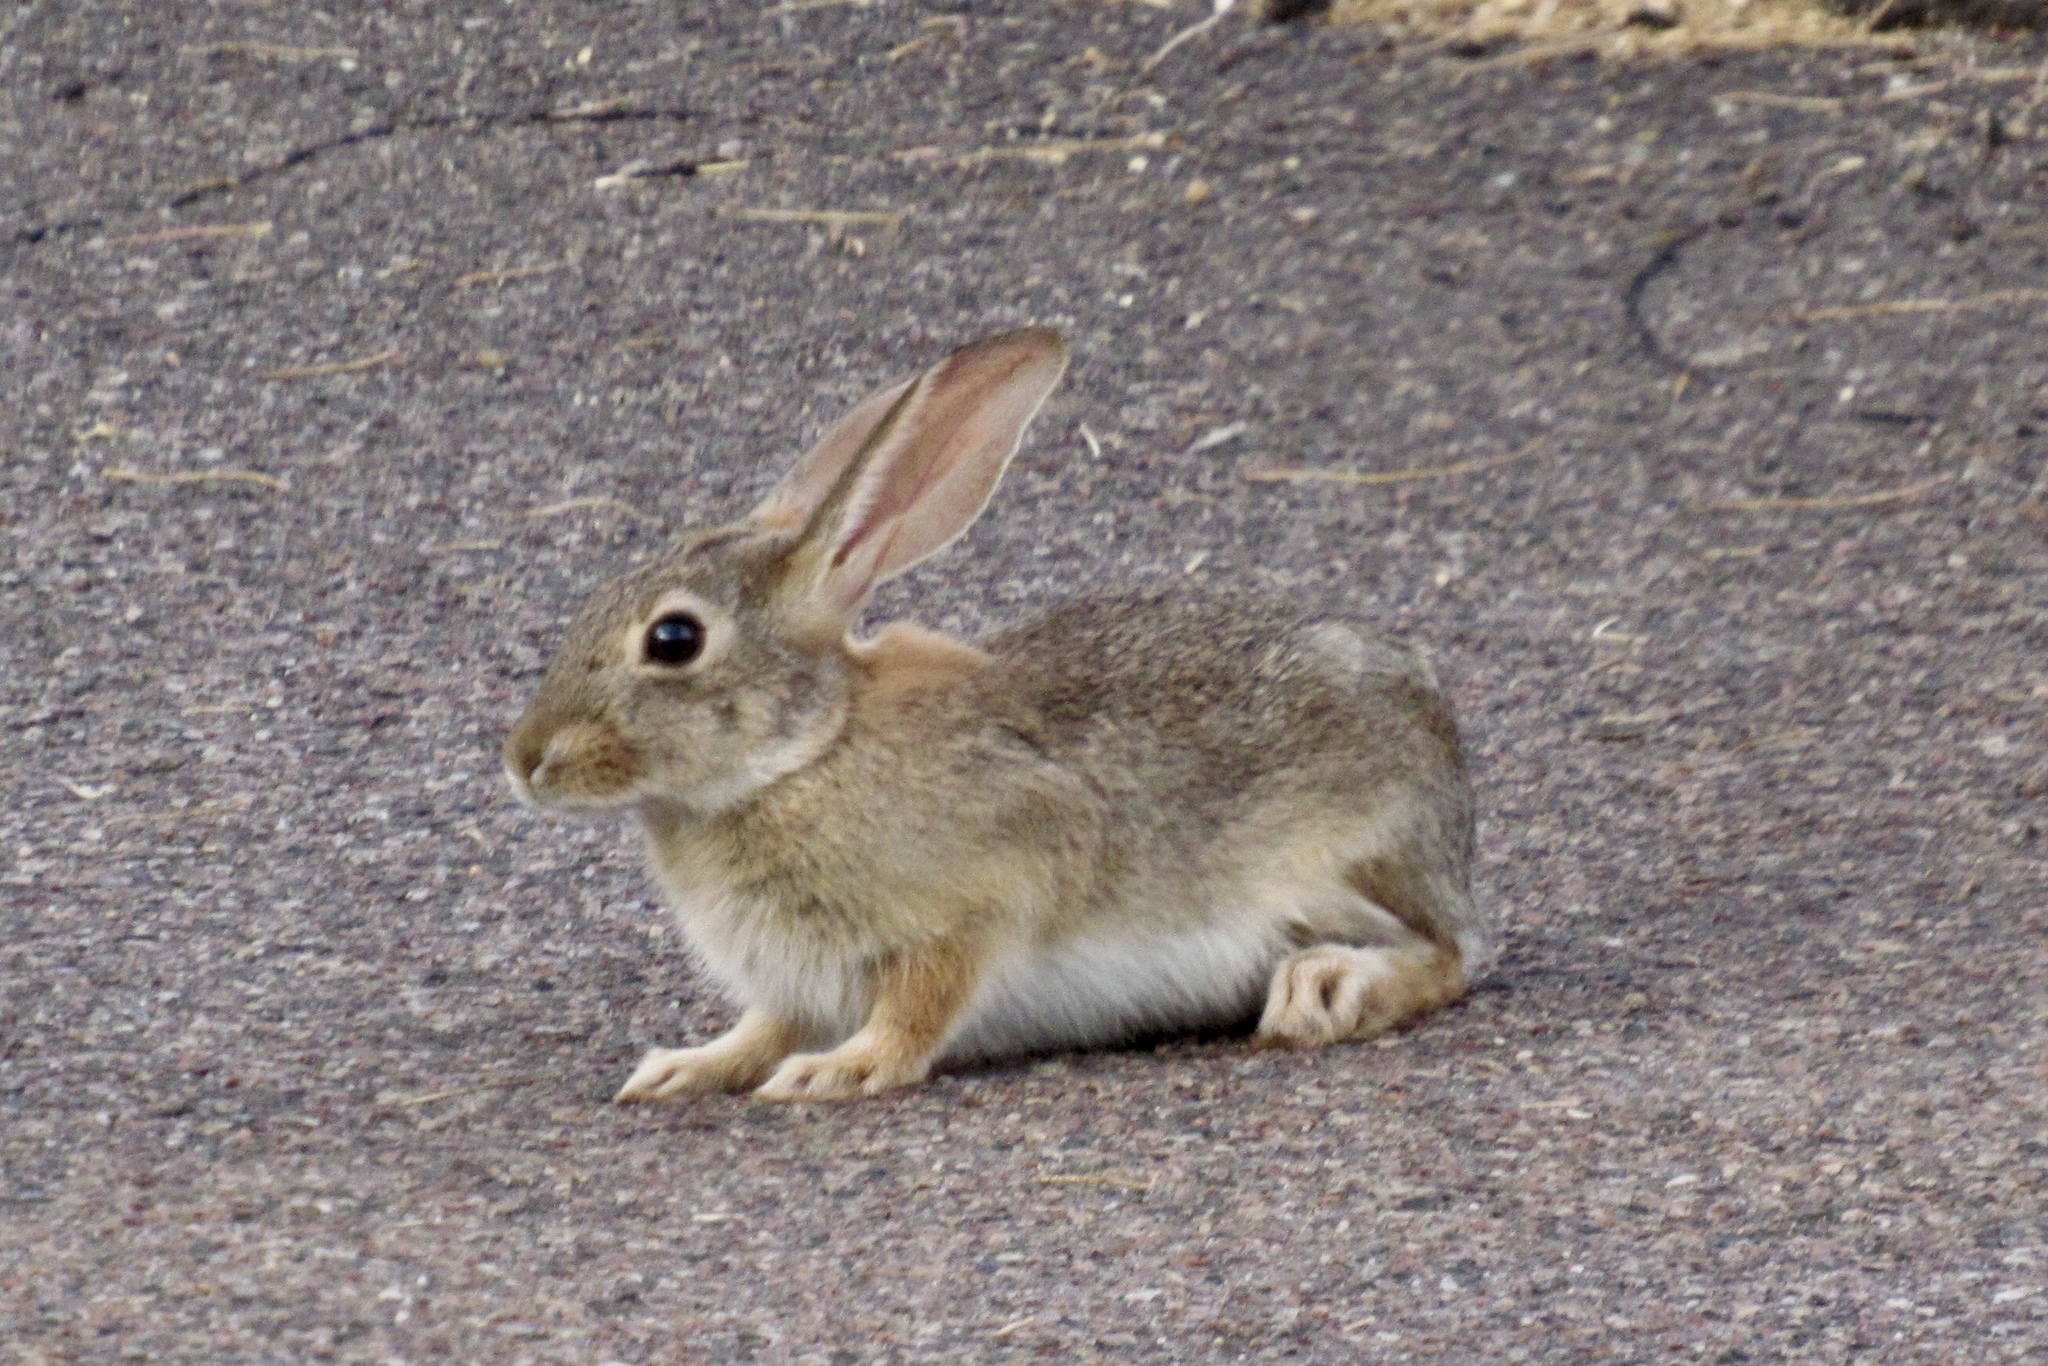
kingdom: Animalia
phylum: Chordata
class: Mammalia
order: Lagomorpha
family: Leporidae
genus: Sylvilagus
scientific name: Sylvilagus audubonii
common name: Desert cottontail
